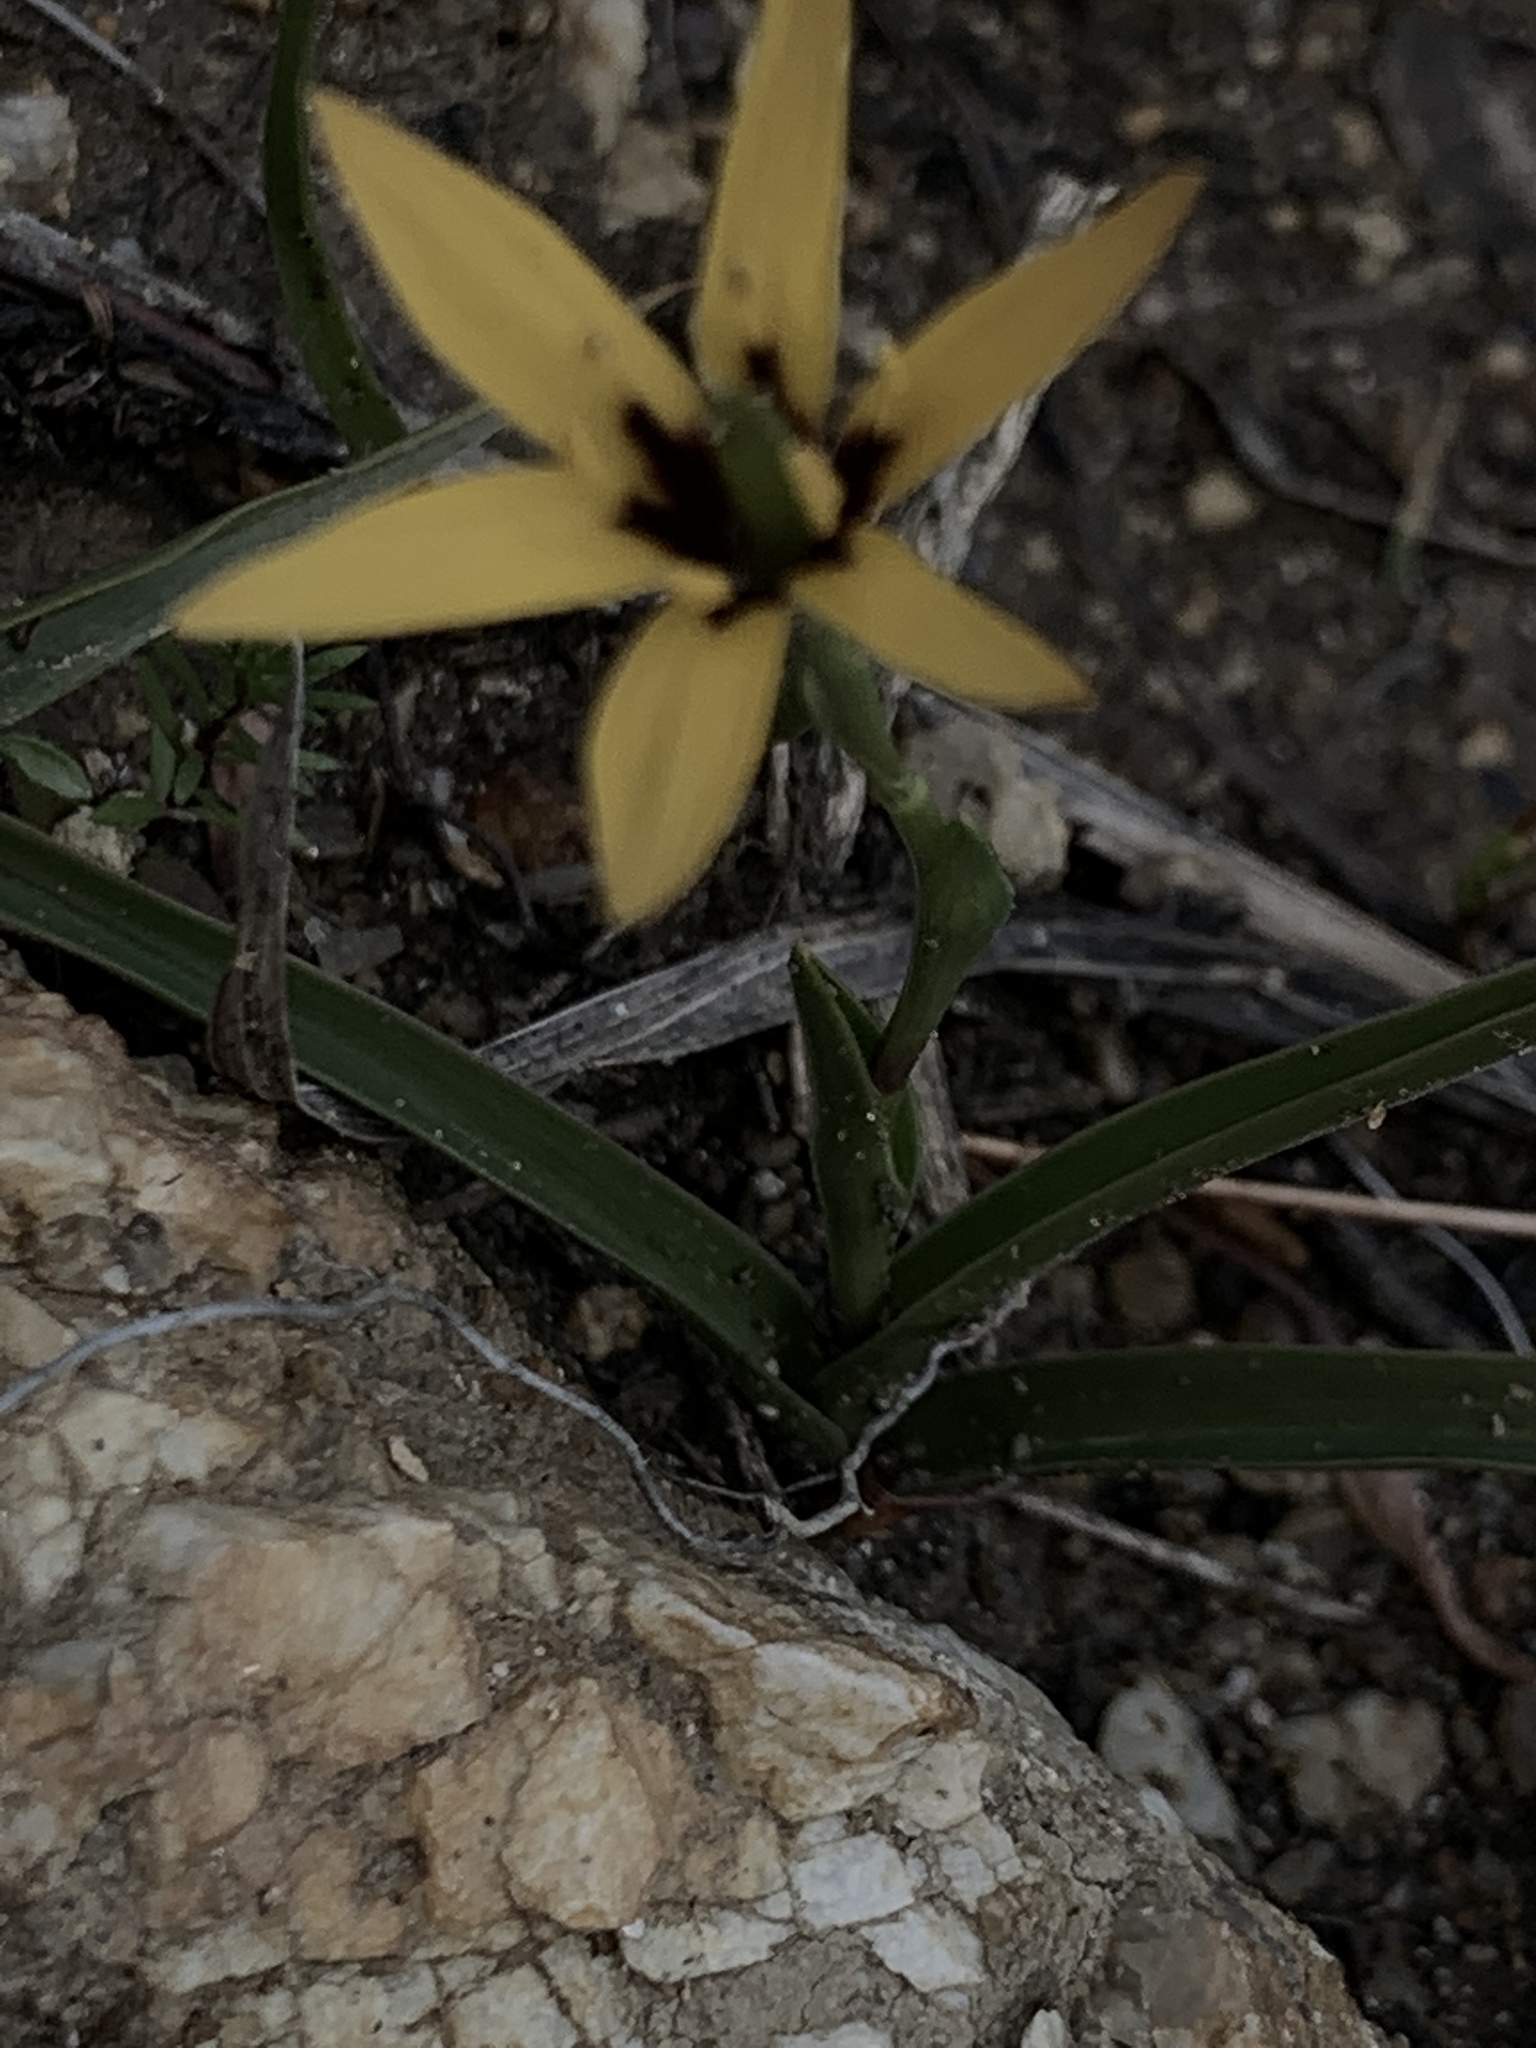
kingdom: Plantae
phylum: Tracheophyta
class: Liliopsida
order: Liliales
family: Colchicaceae
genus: Baeometra
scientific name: Baeometra uniflora
